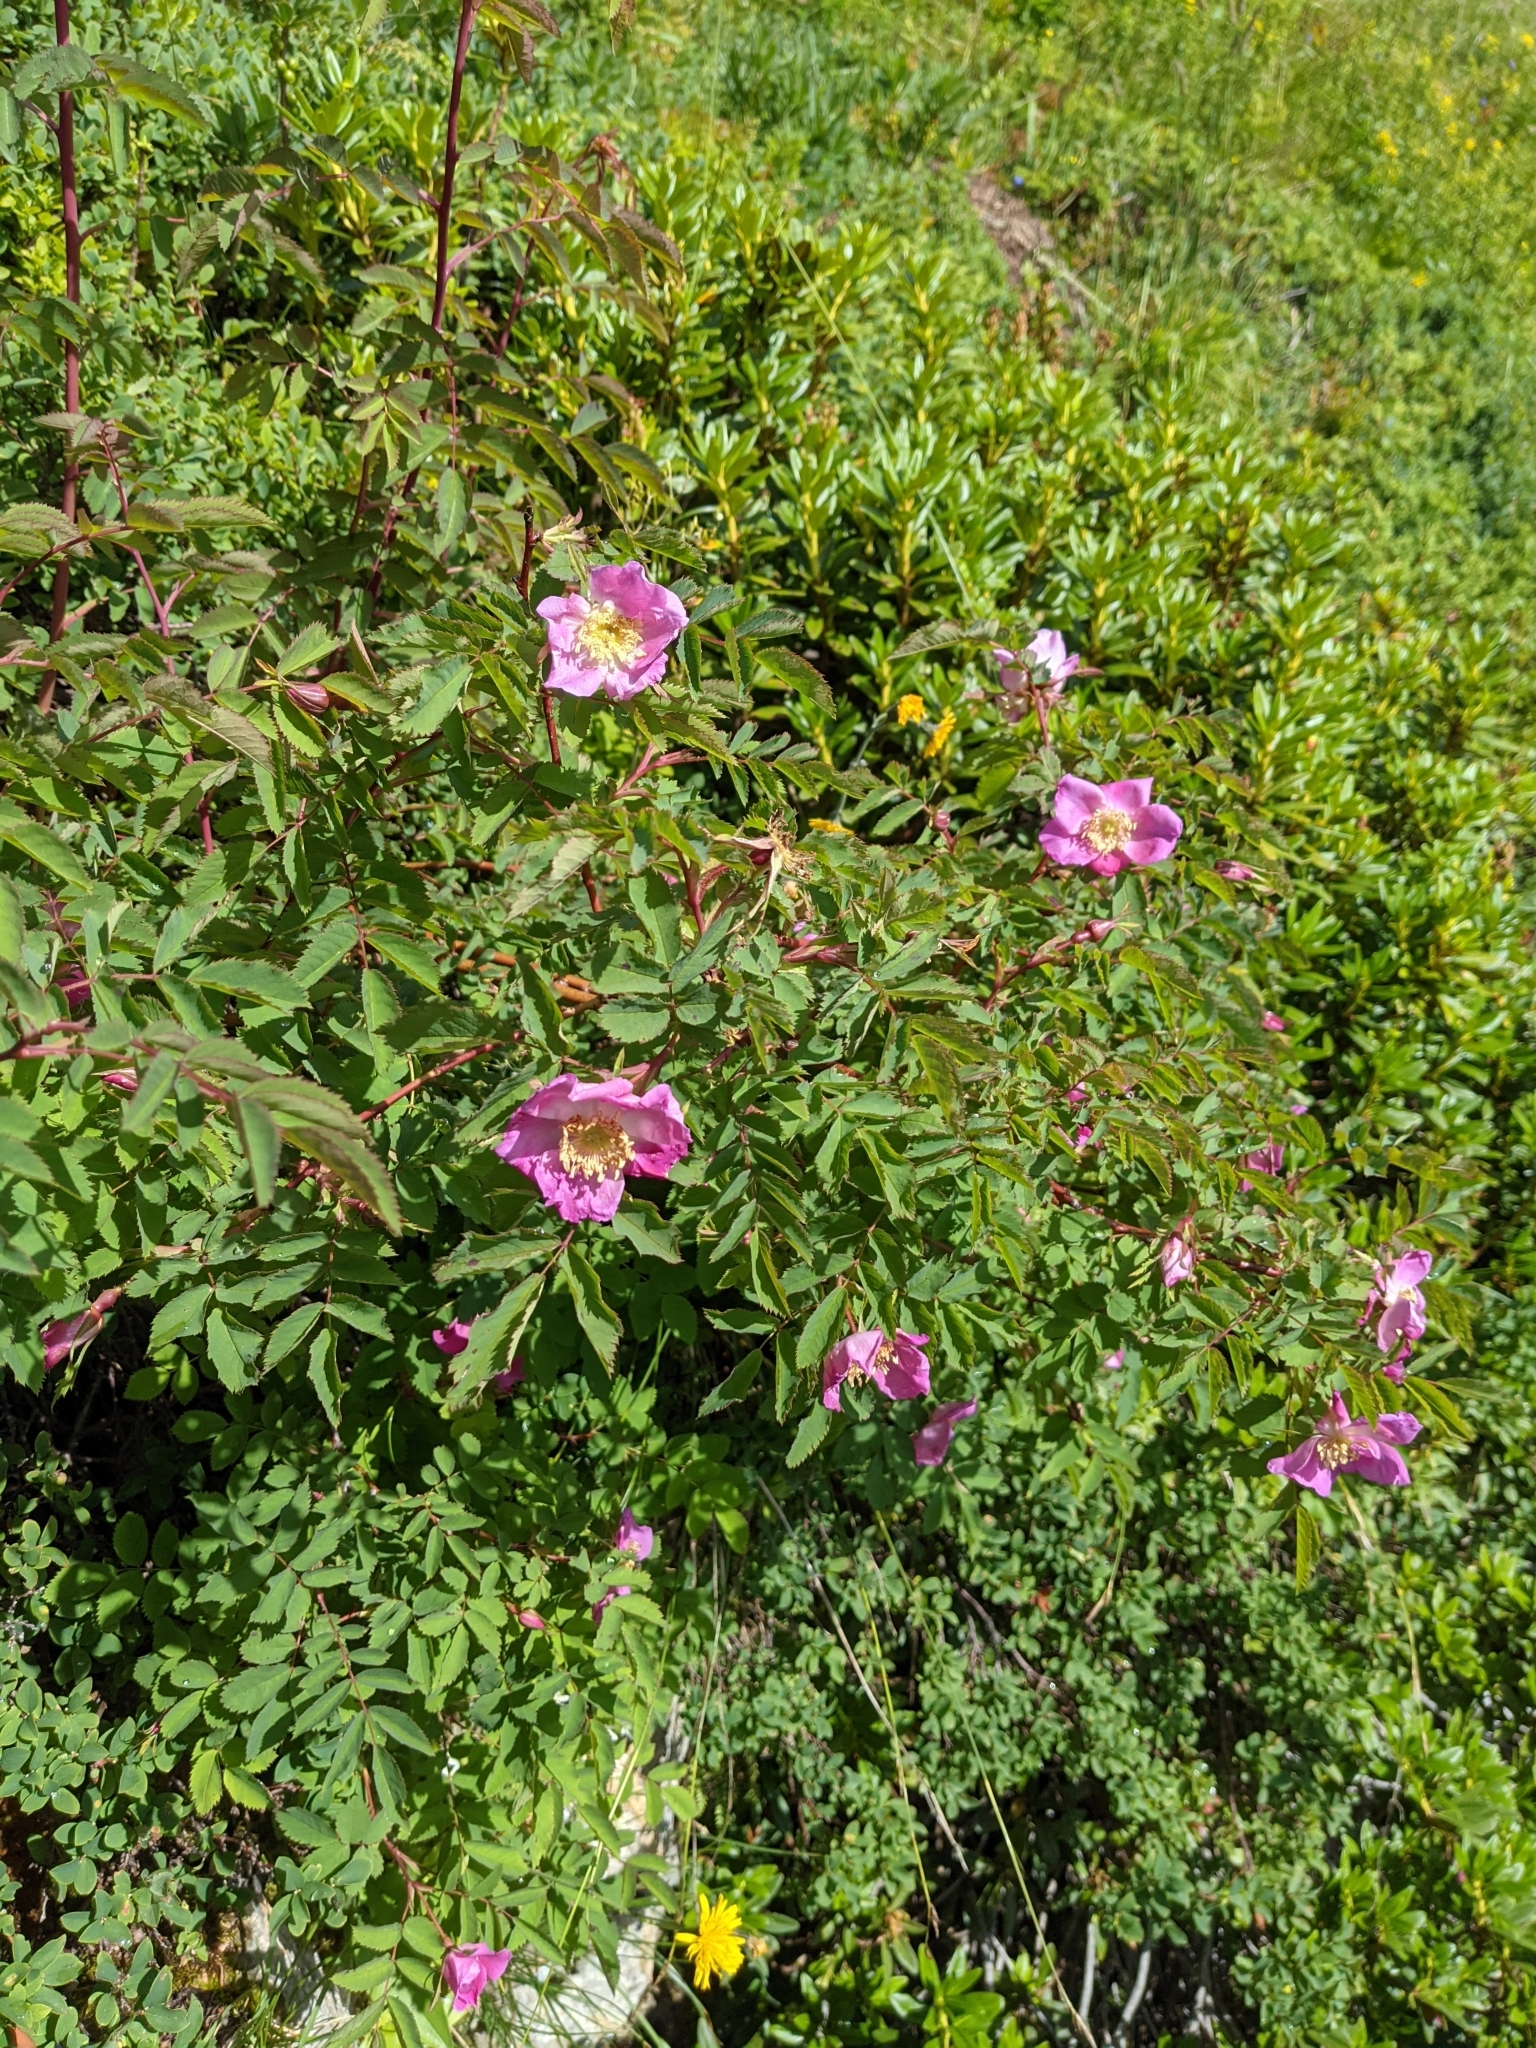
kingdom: Plantae
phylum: Tracheophyta
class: Magnoliopsida
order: Rosales
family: Rosaceae
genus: Rosa
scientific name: Rosa pendulina
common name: Alpine rose
